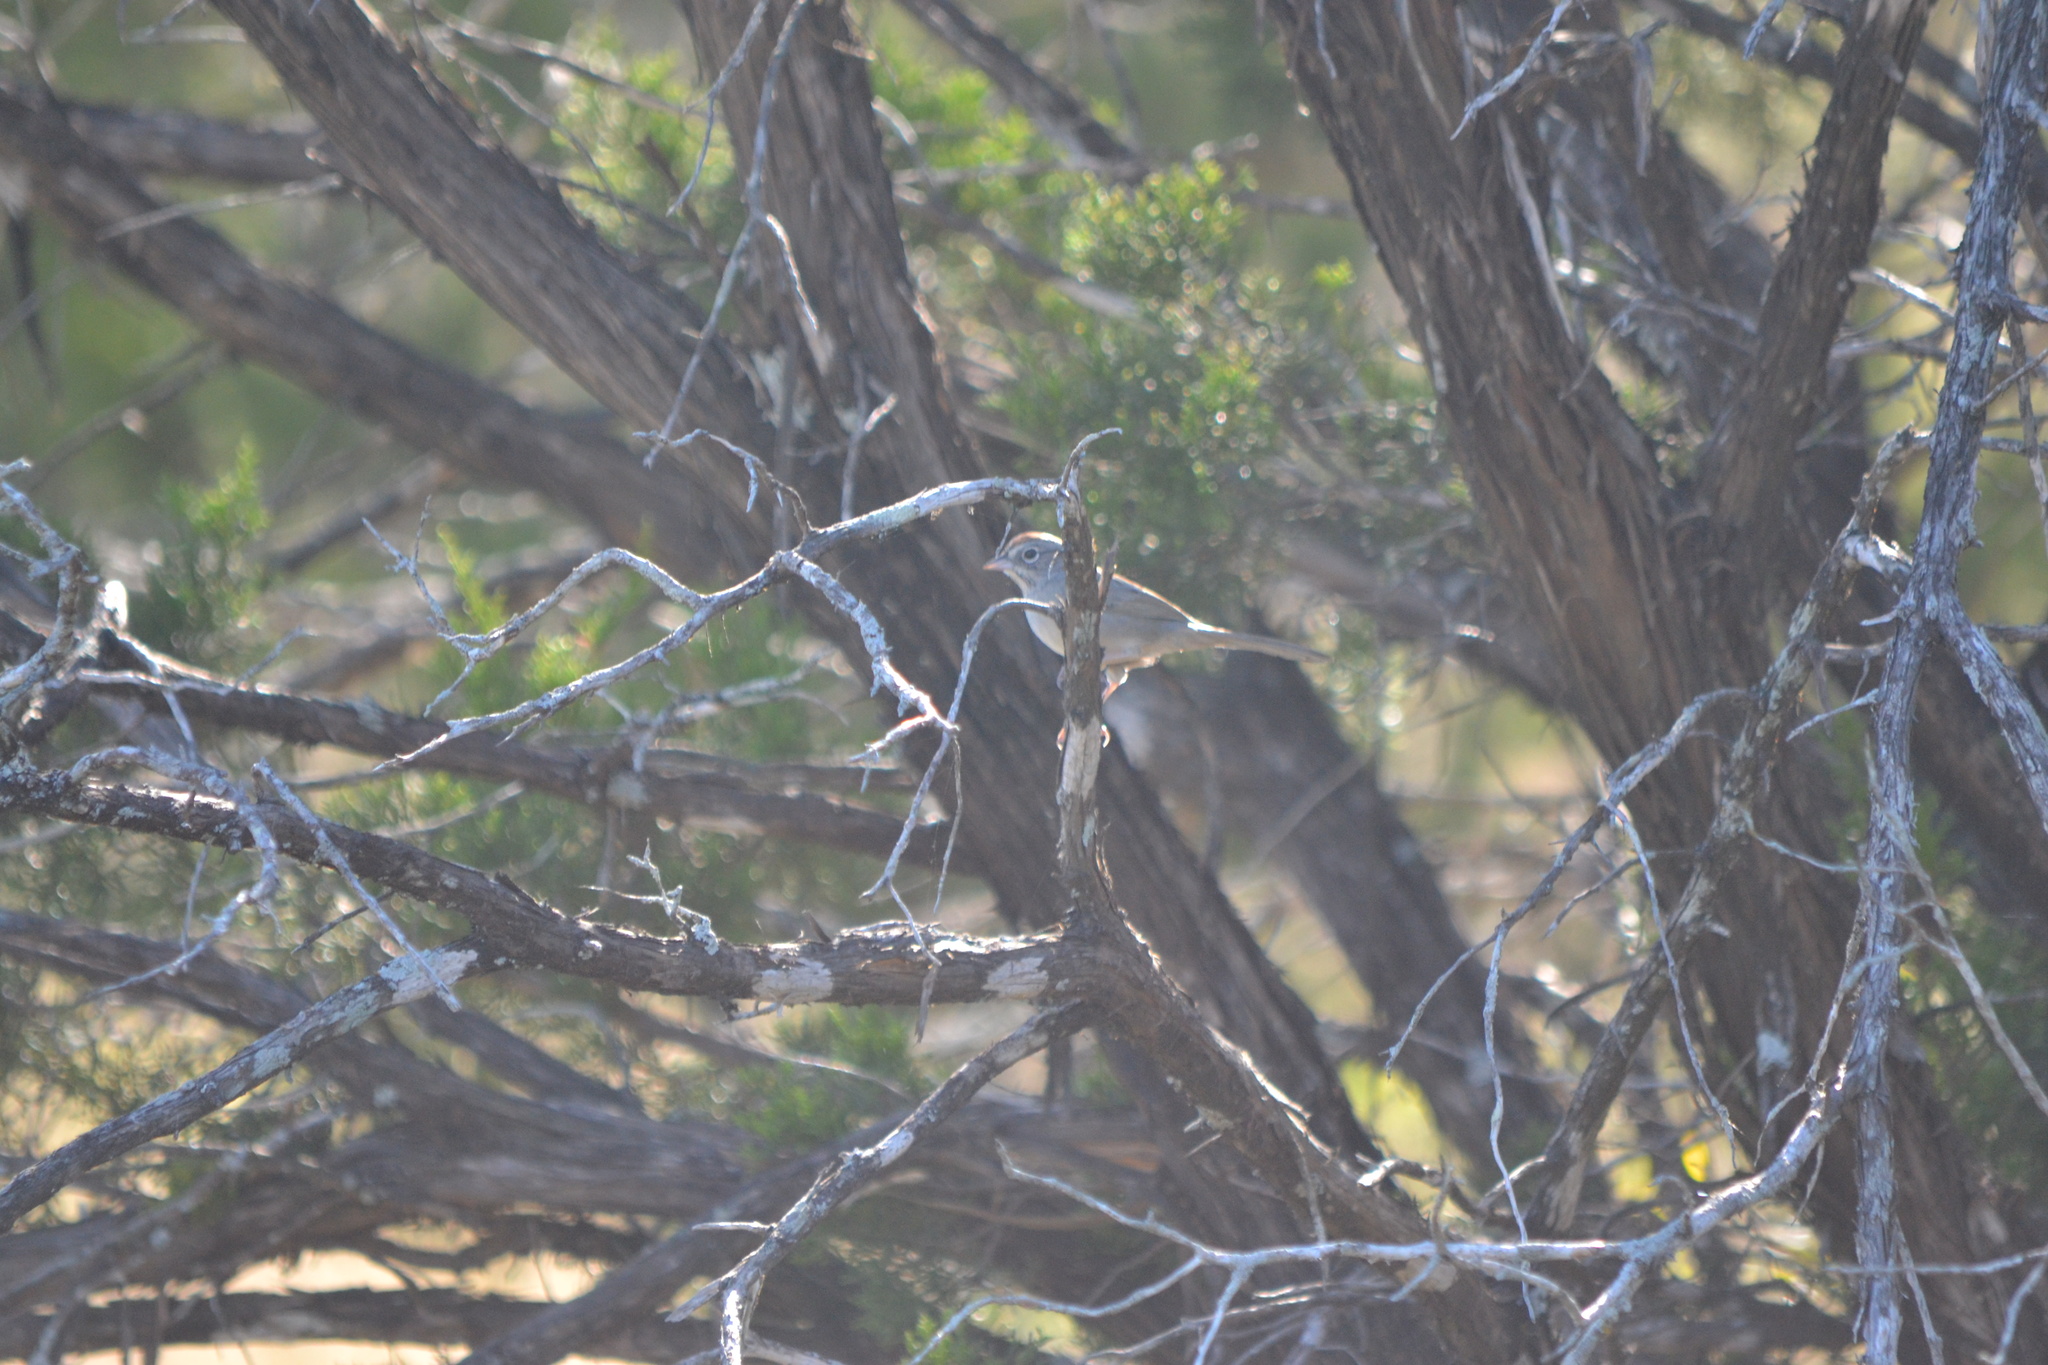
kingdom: Animalia
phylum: Chordata
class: Aves
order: Passeriformes
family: Passerellidae
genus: Aimophila
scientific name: Aimophila ruficeps
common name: Rufous-crowned sparrow
